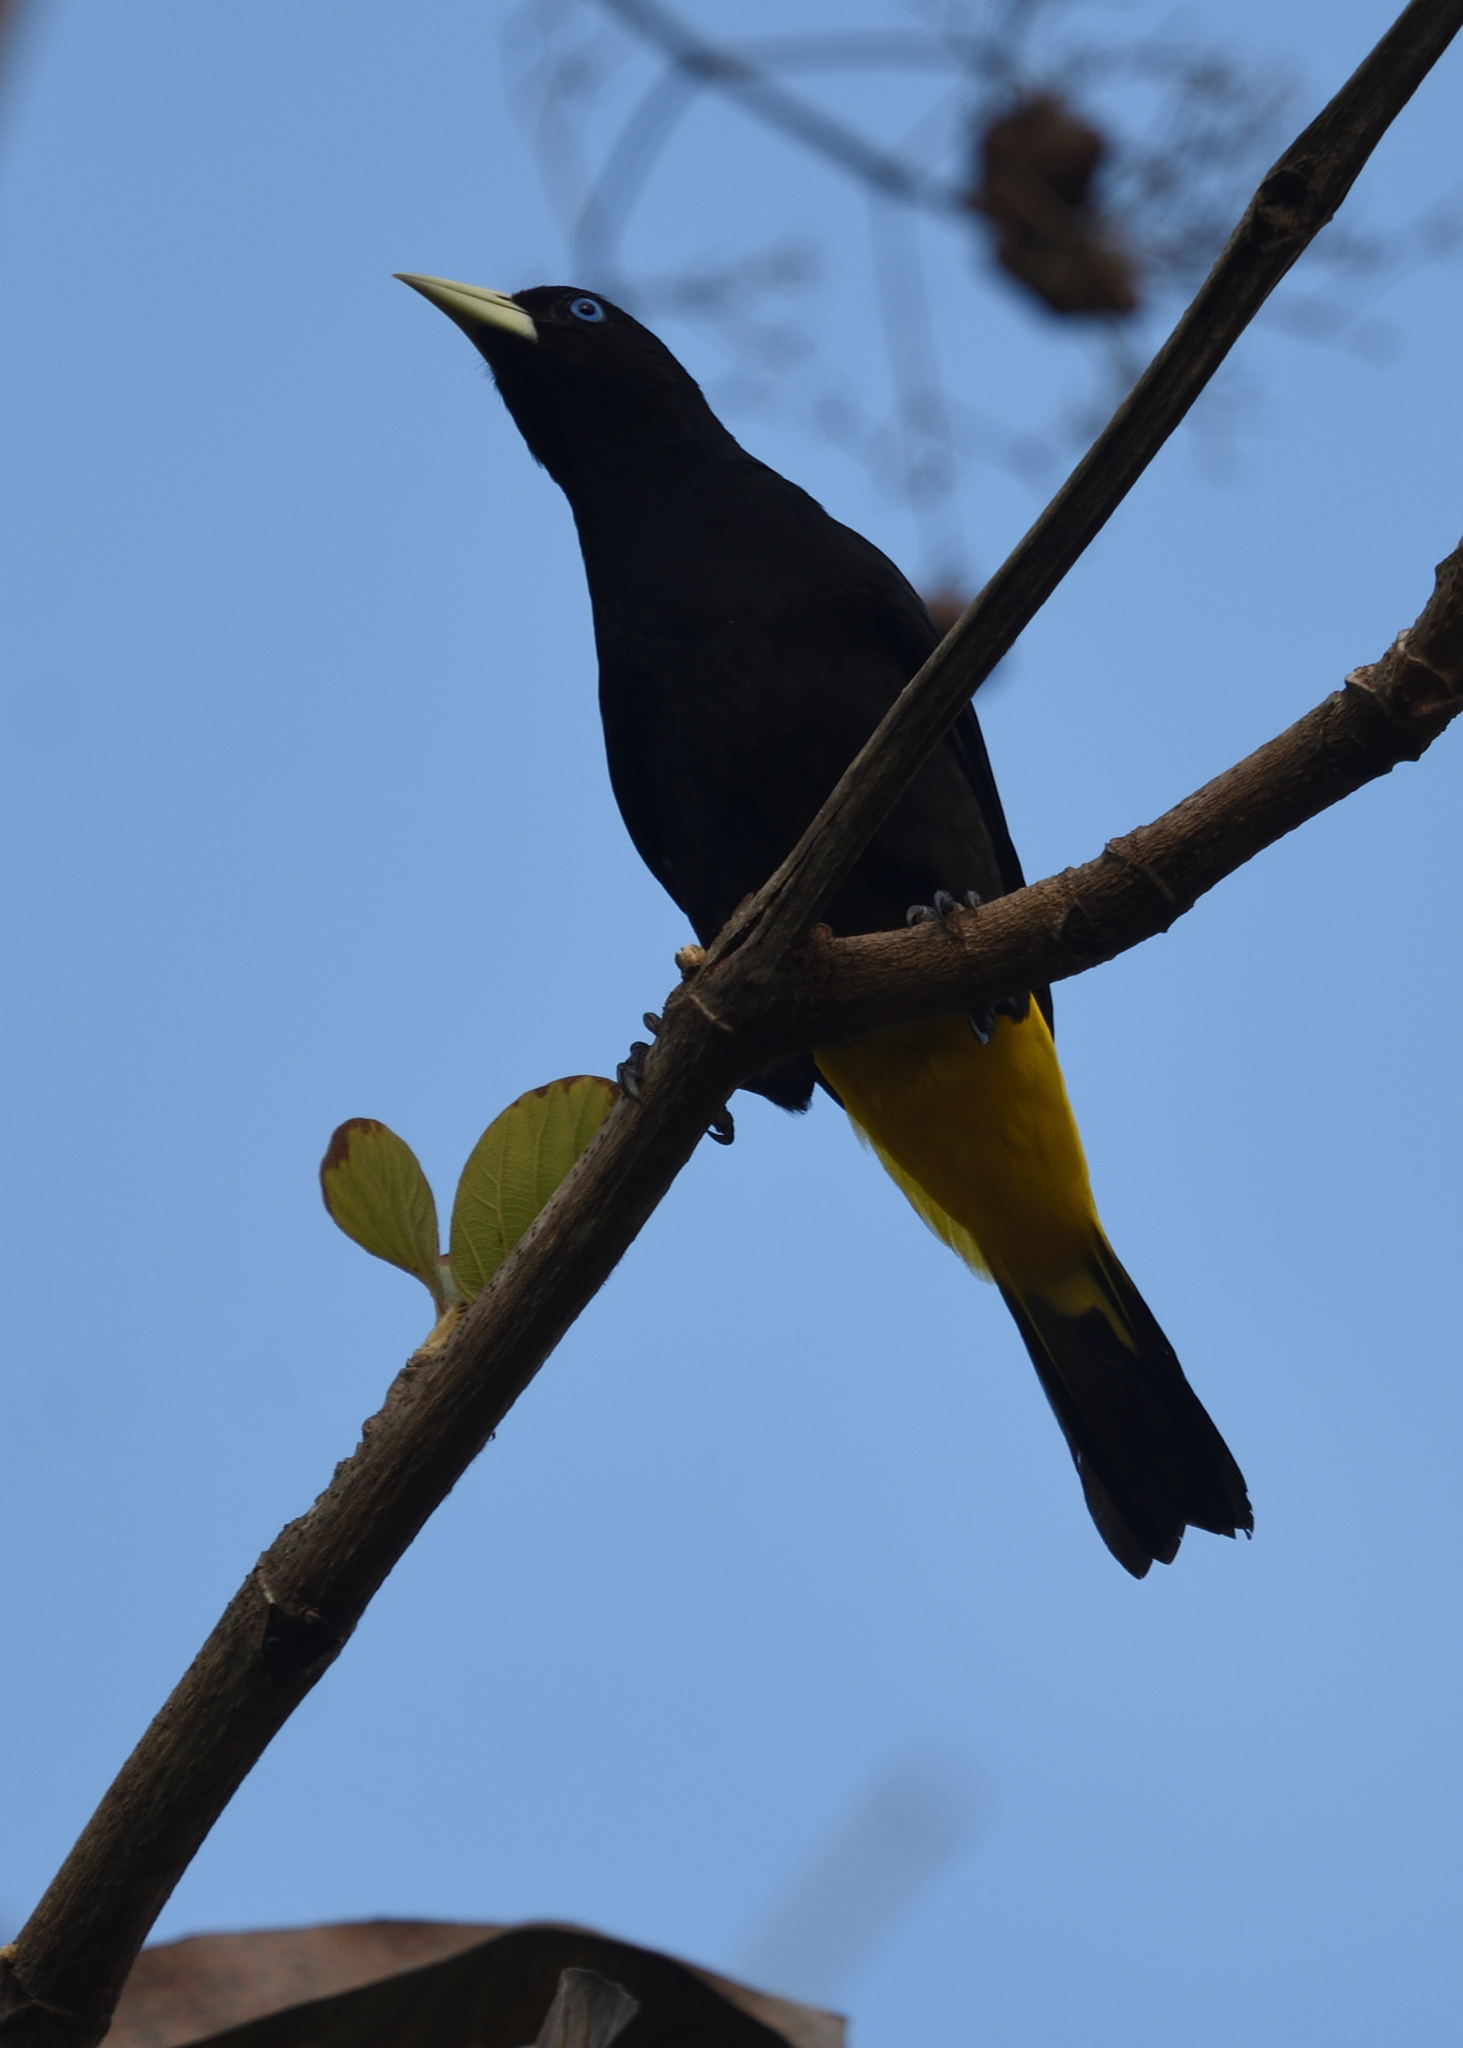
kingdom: Animalia
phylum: Chordata
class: Aves
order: Passeriformes
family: Icteridae
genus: Cacicus
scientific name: Cacicus cela
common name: Yellow-rumped cacique
